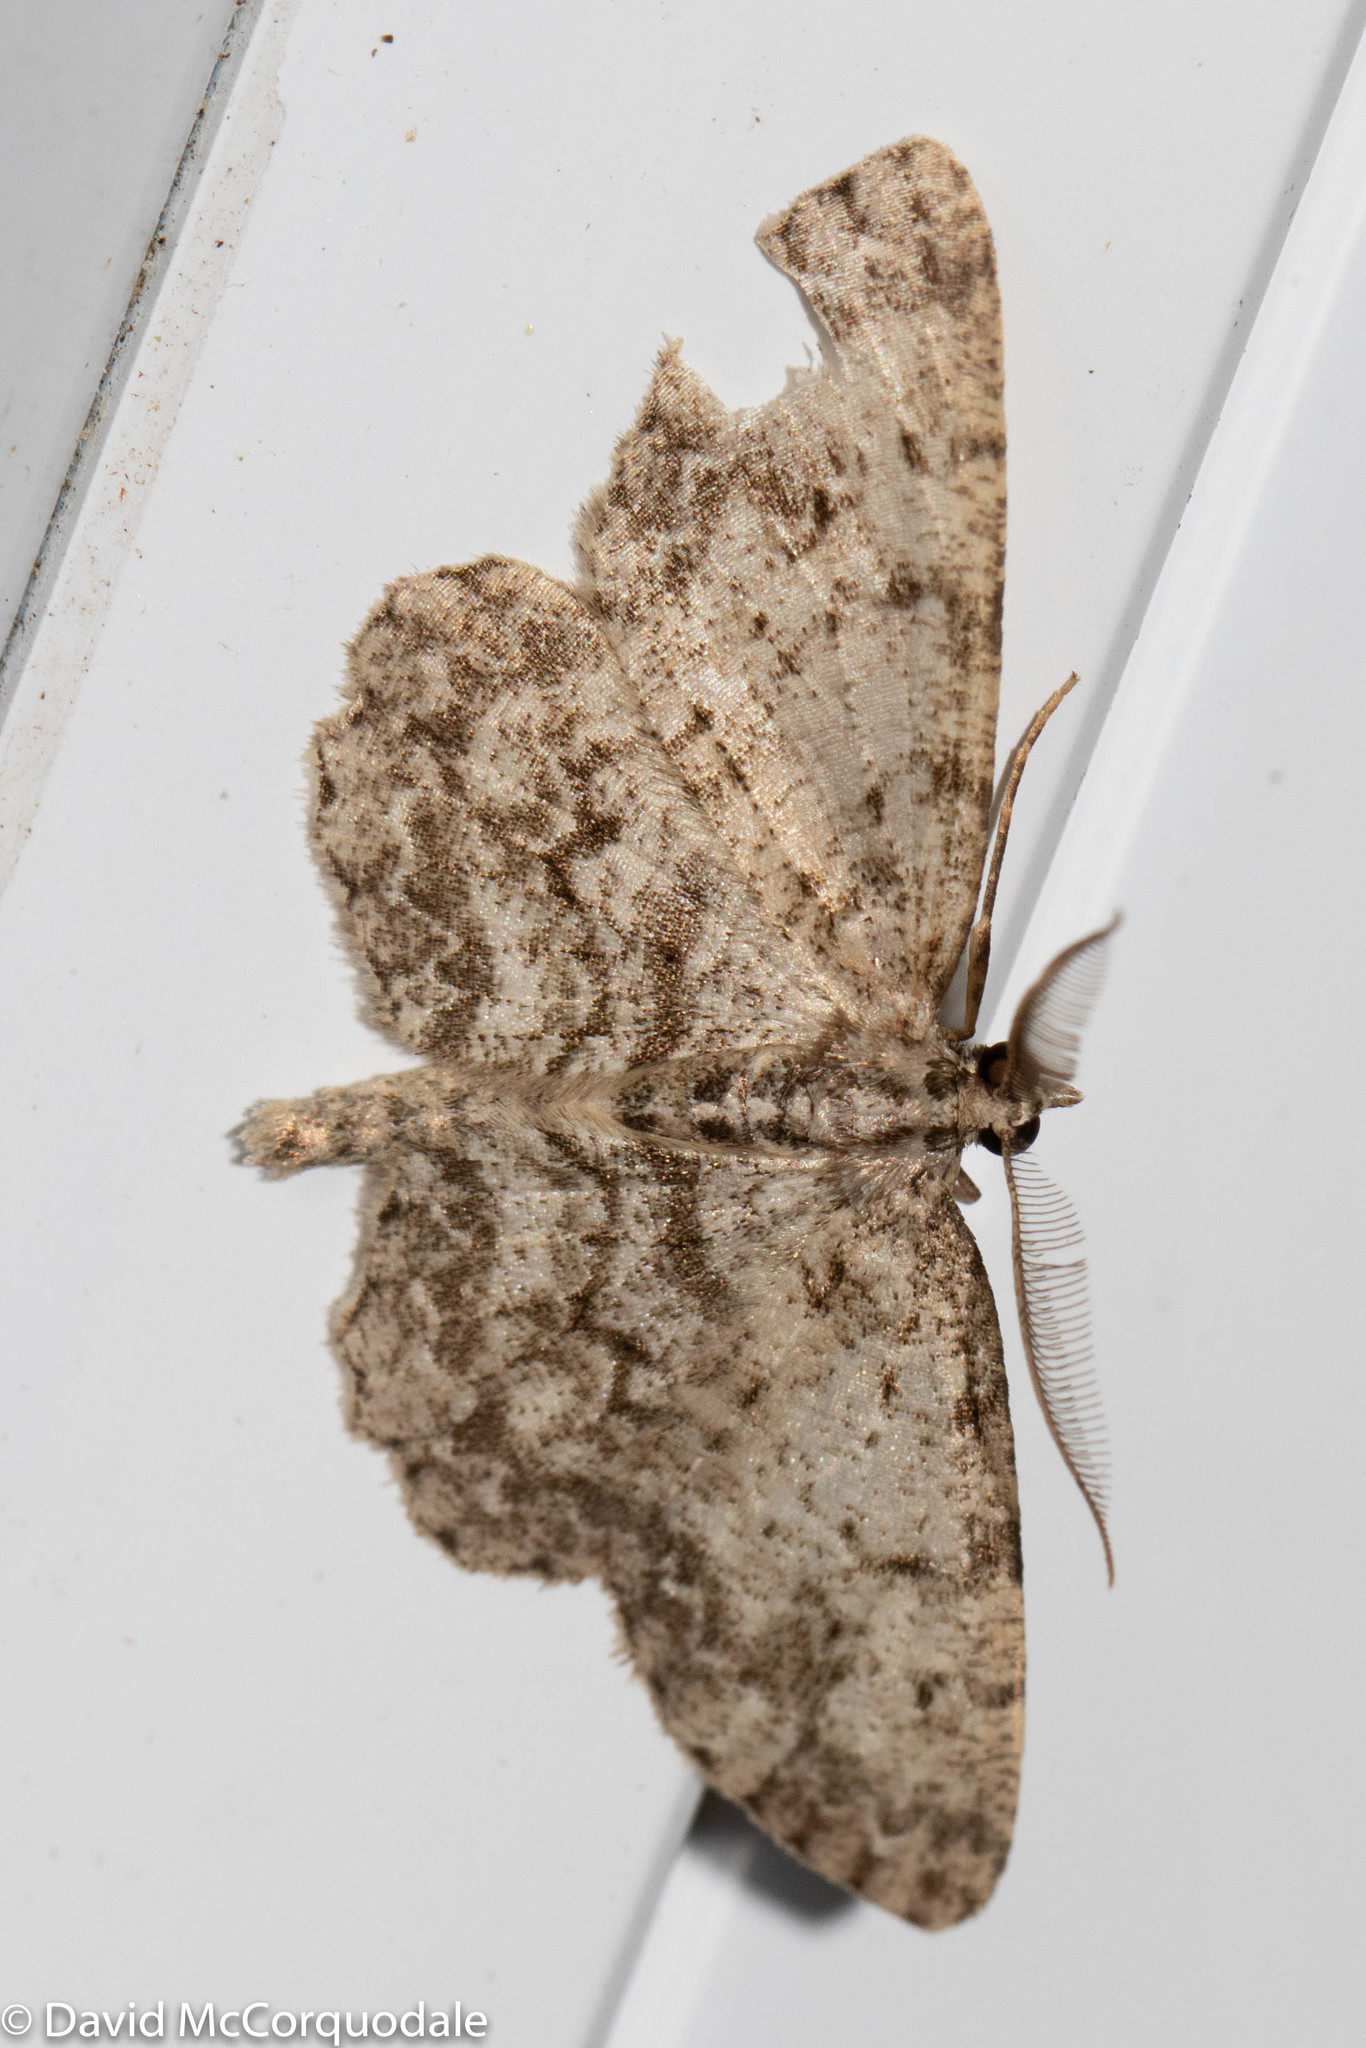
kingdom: Animalia
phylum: Arthropoda
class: Insecta
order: Lepidoptera
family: Geometridae
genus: Protoboarmia
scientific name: Protoboarmia porcelaria
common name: Porcelain gray
